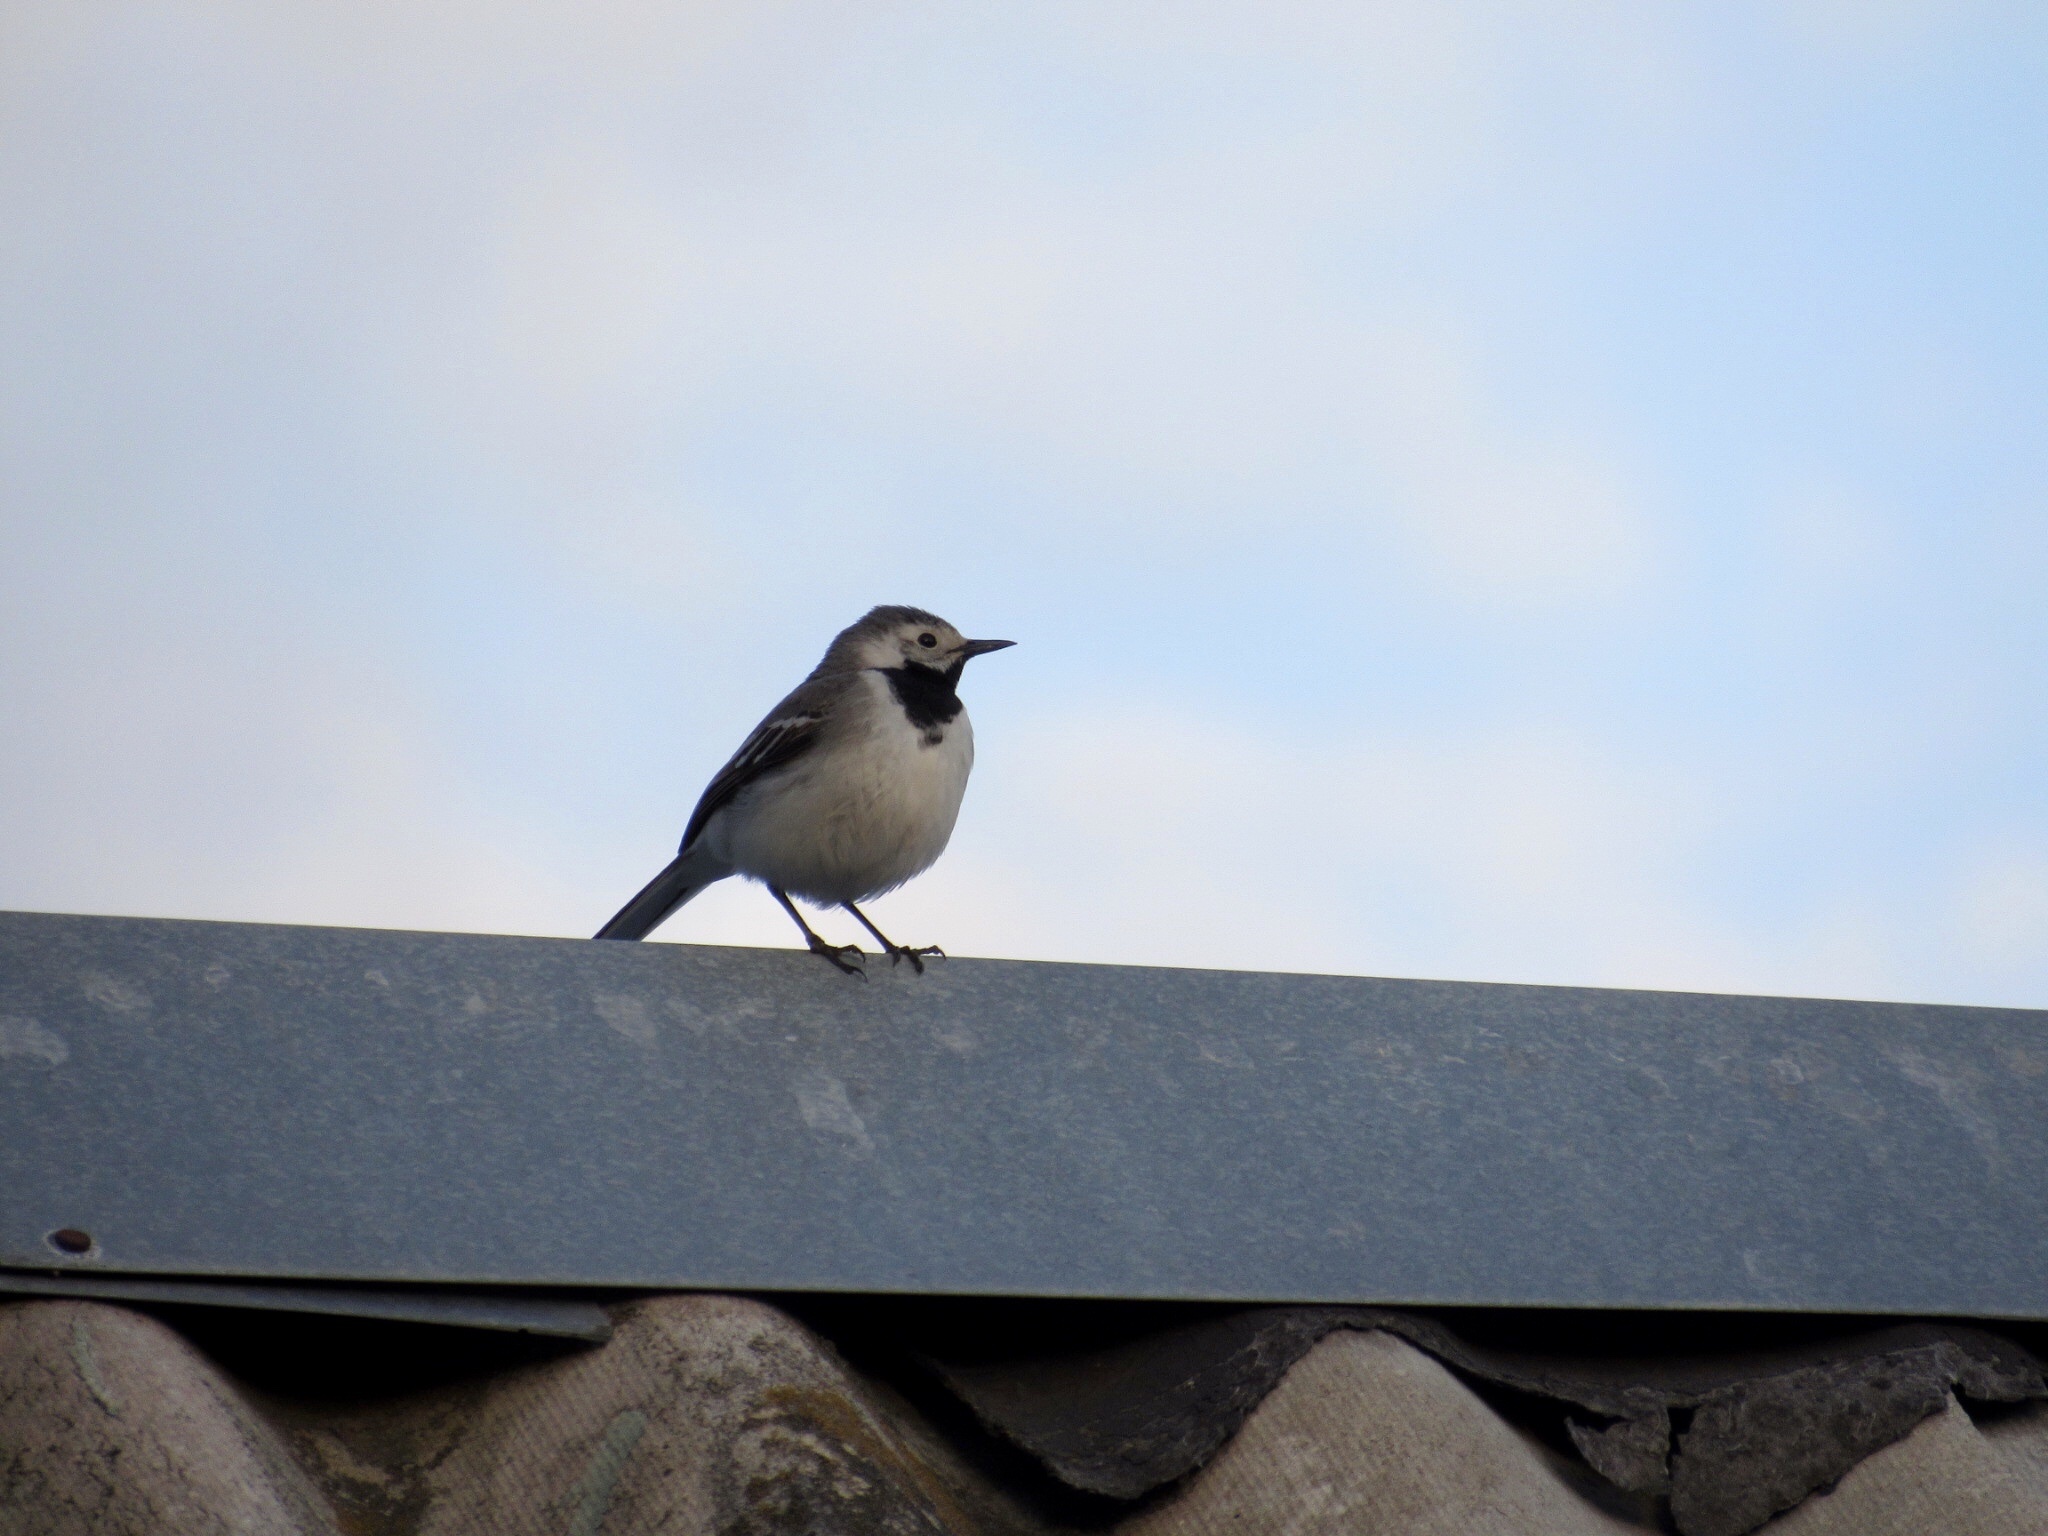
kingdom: Animalia
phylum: Chordata
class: Aves
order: Passeriformes
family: Motacillidae
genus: Motacilla
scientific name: Motacilla alba
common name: White wagtail
